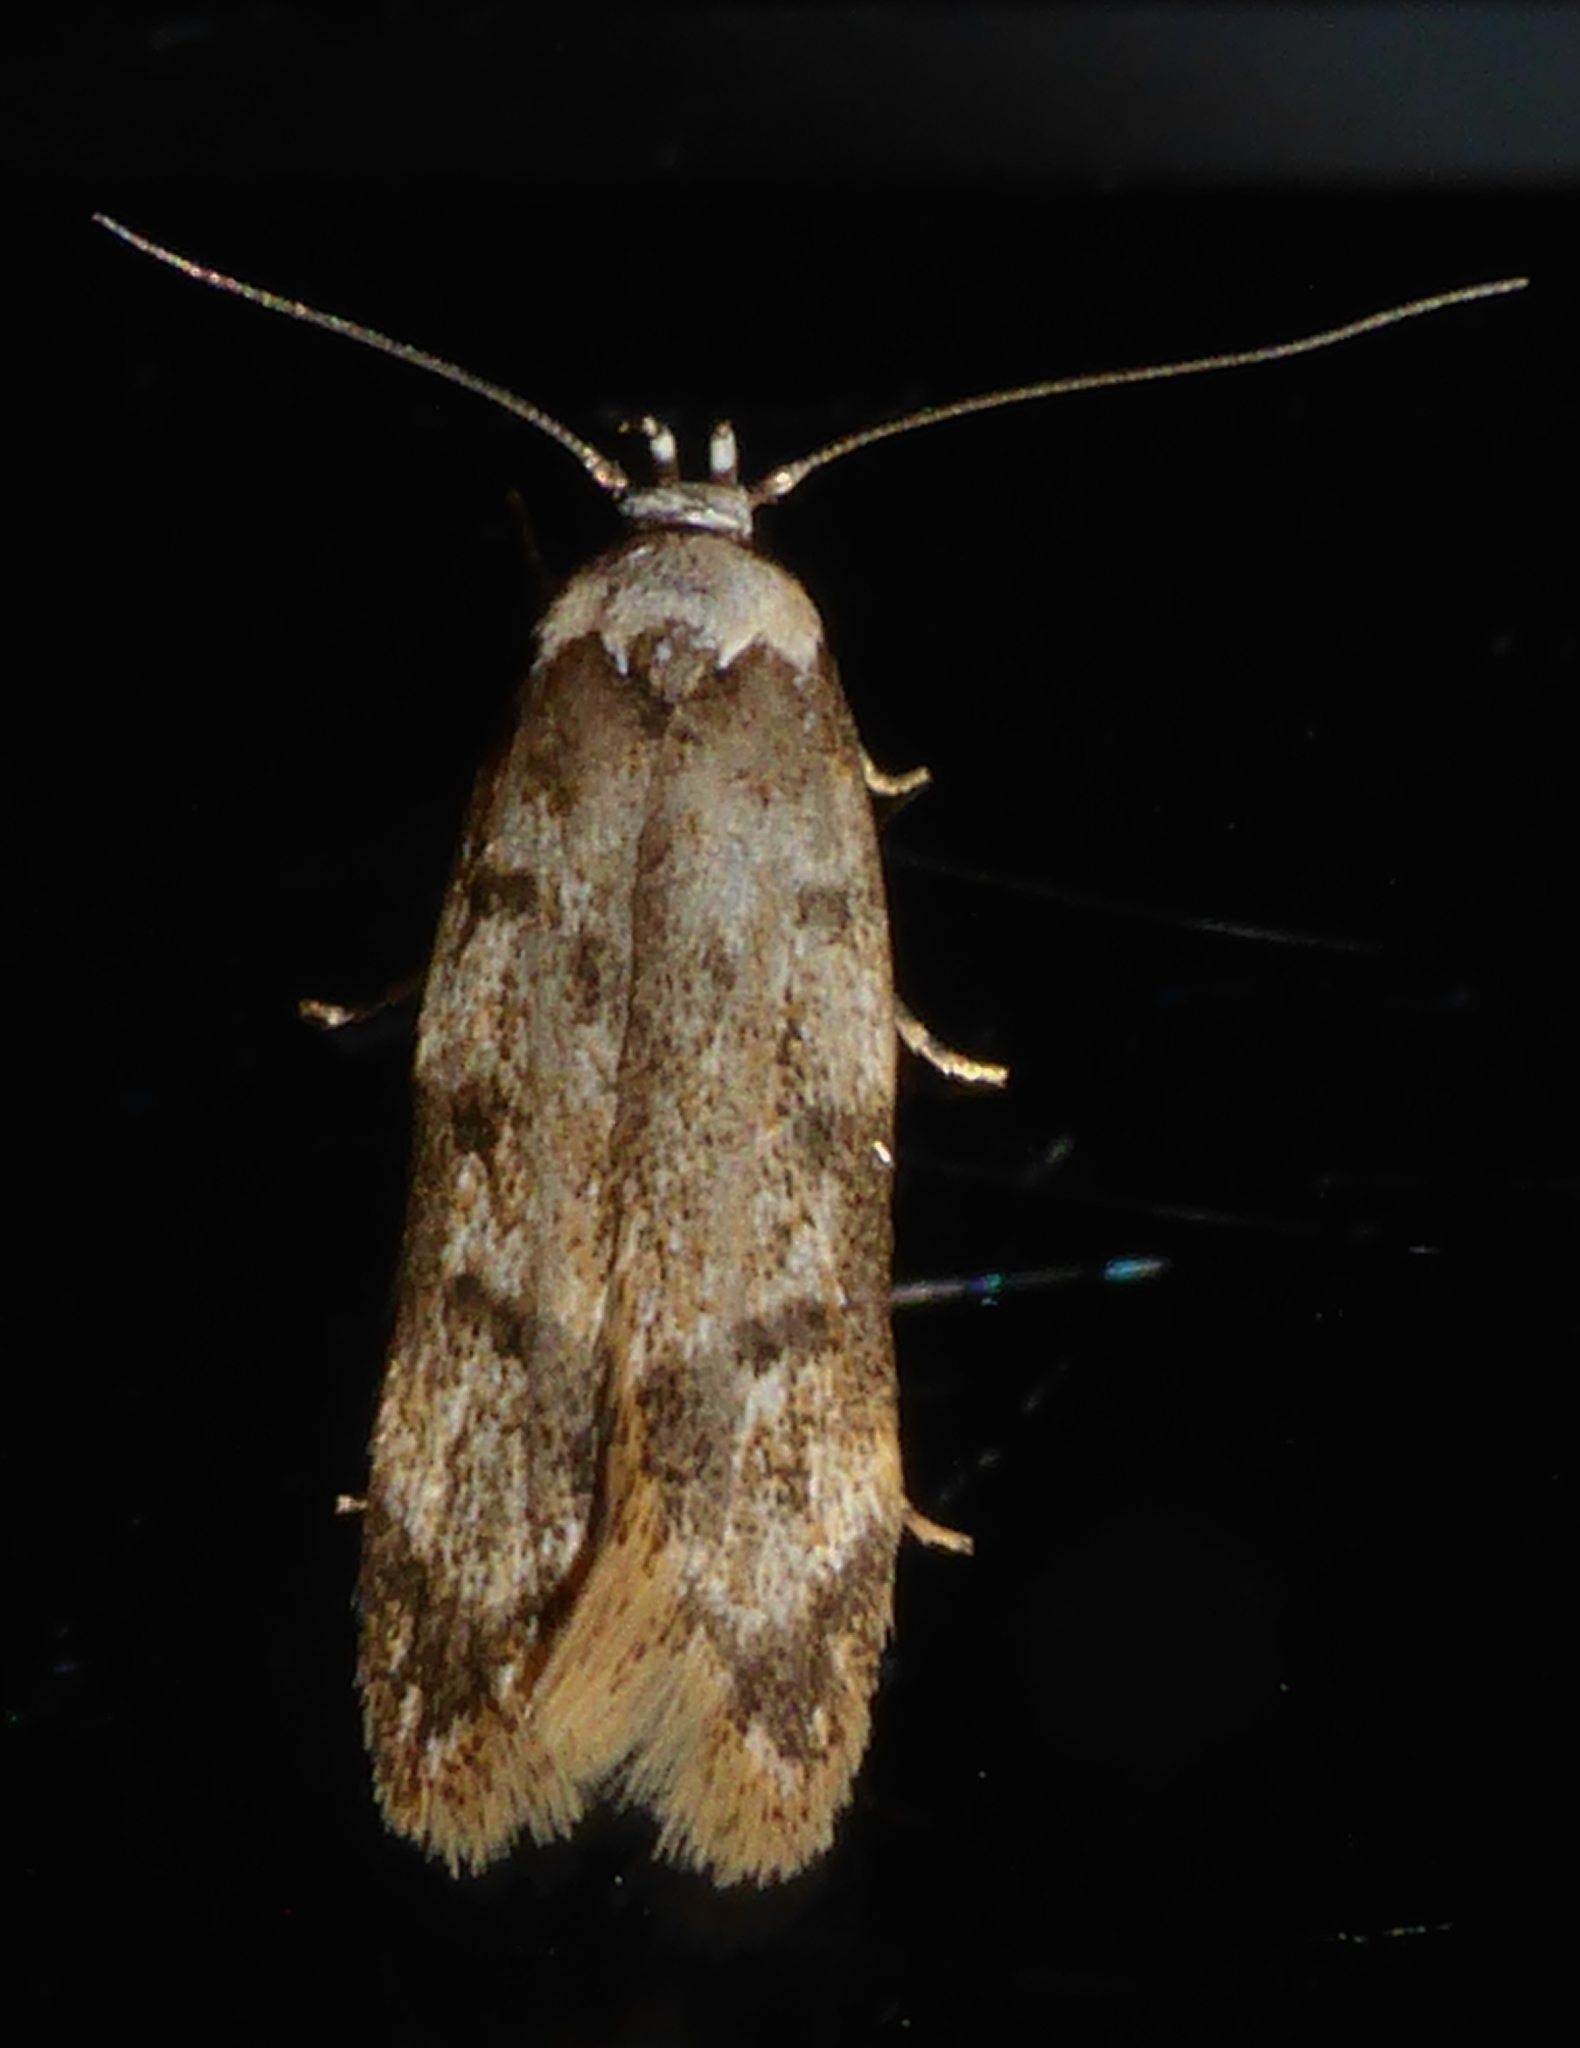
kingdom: Animalia
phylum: Arthropoda
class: Insecta
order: Lepidoptera
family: Oecophoridae
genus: Endrosis
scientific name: Endrosis sarcitrella
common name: White-shouldered house moth
